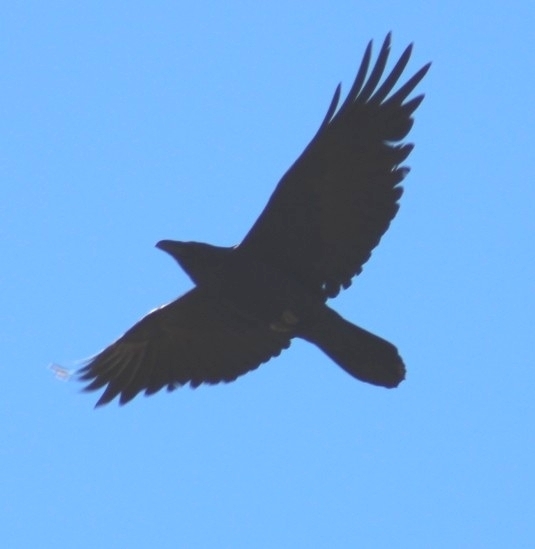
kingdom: Animalia
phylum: Chordata
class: Aves
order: Passeriformes
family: Corvidae
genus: Corvus
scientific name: Corvus corax
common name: Common raven
